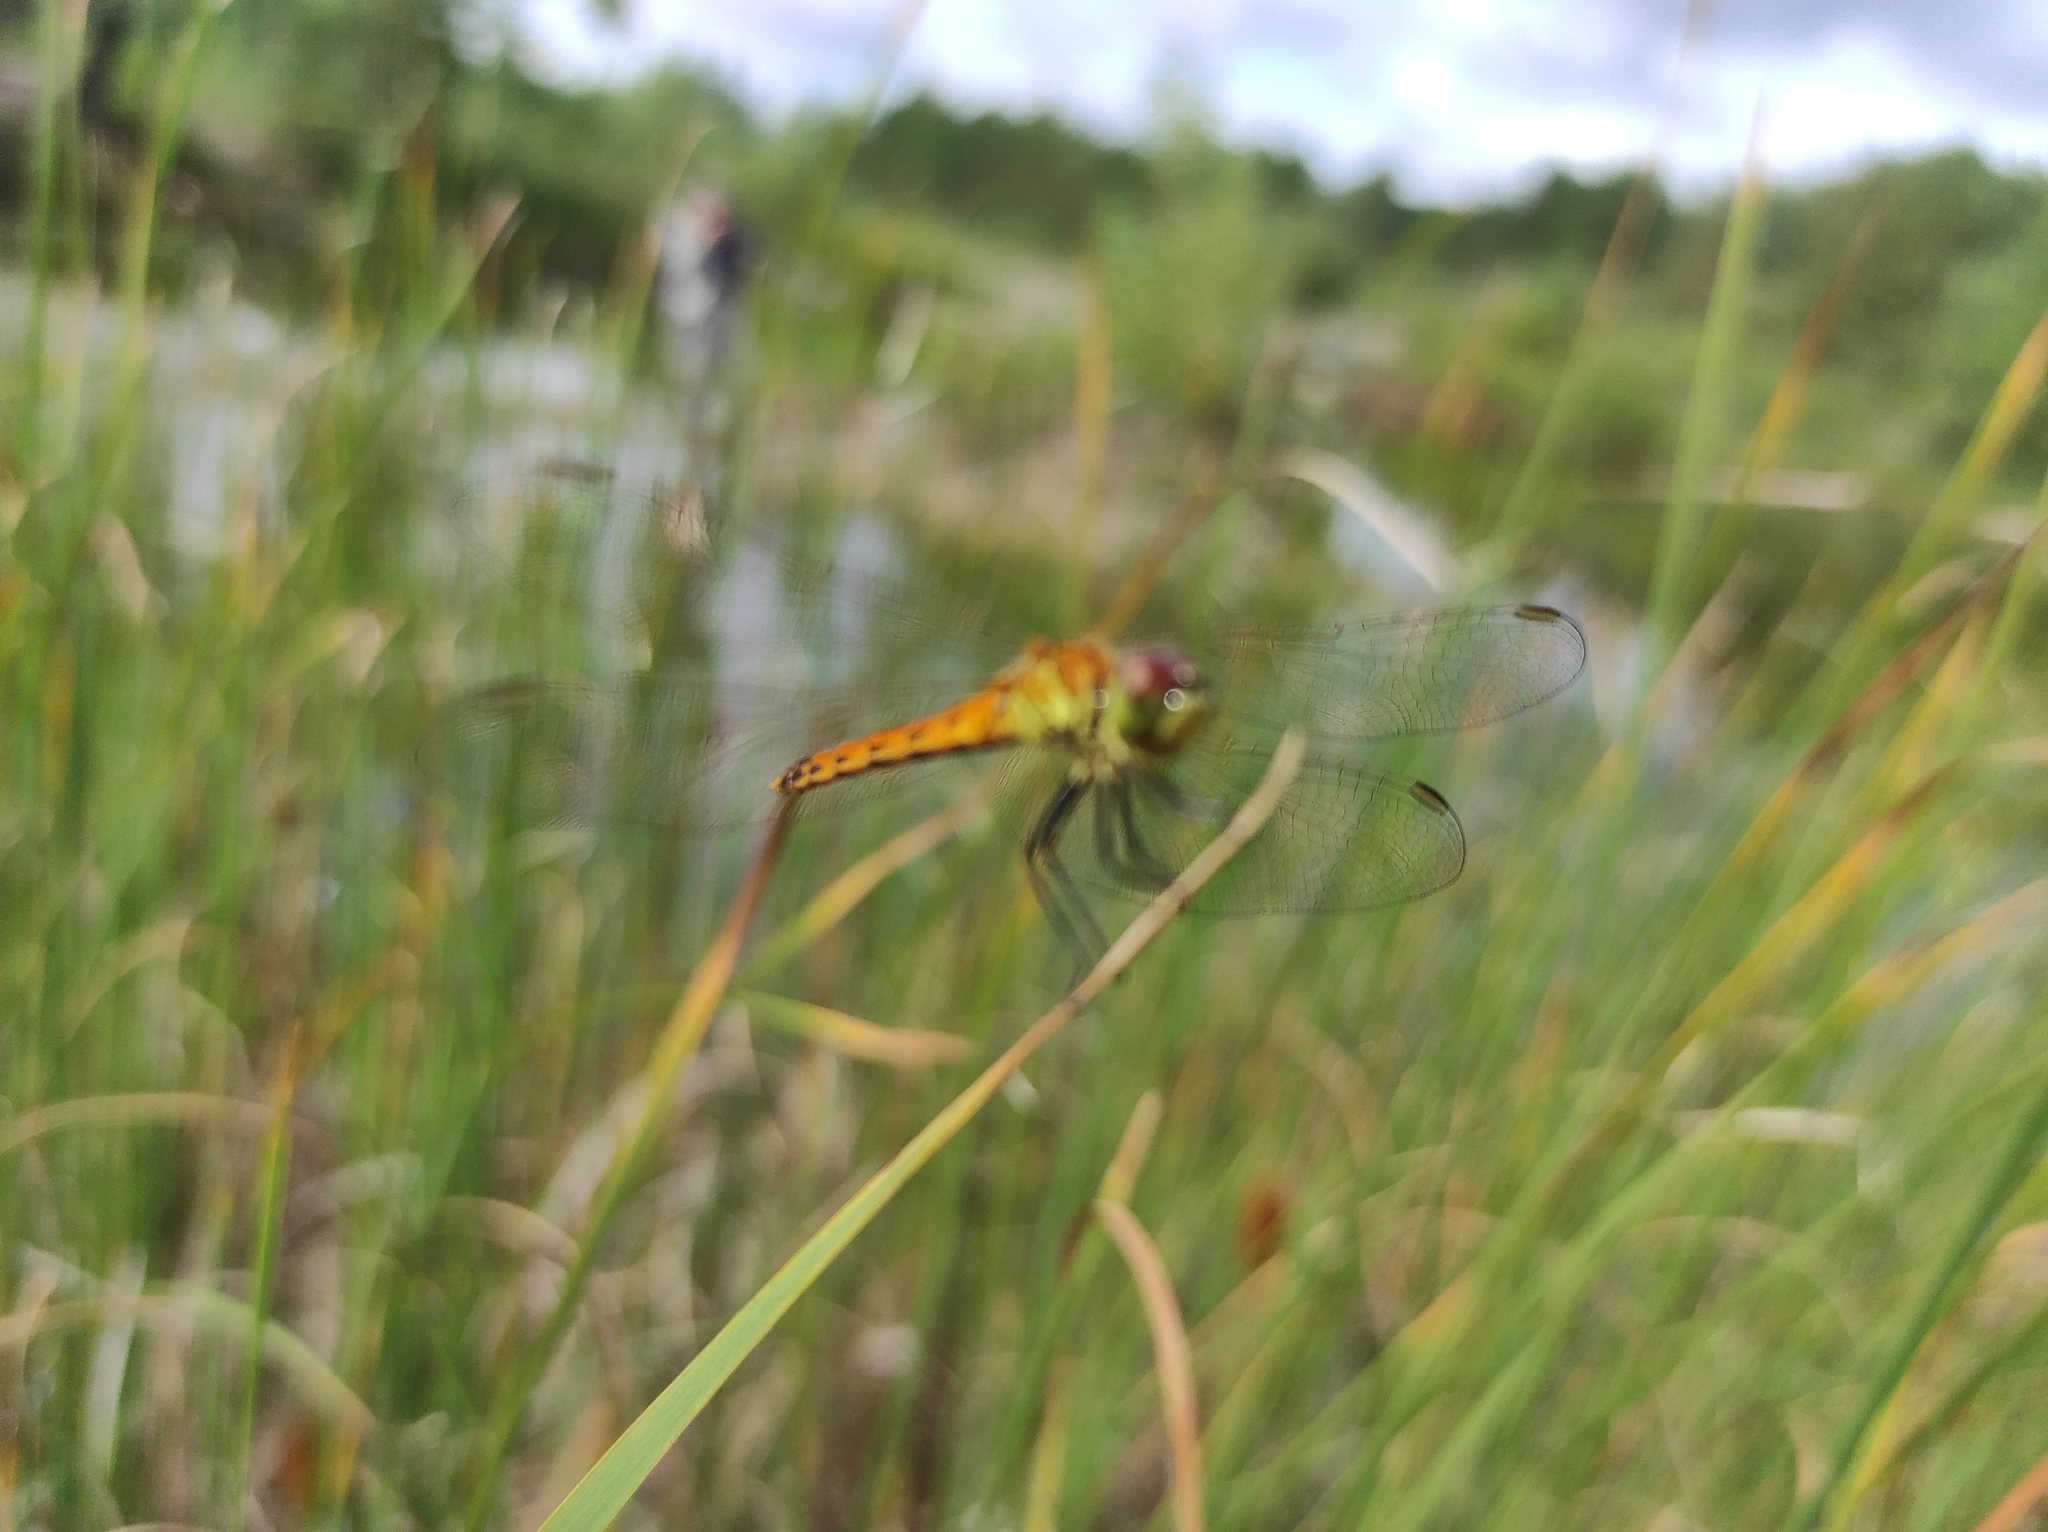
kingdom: Animalia
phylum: Arthropoda
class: Insecta
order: Odonata
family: Libellulidae
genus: Sympetrum
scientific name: Sympetrum depressiusculum
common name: Spotted darter
